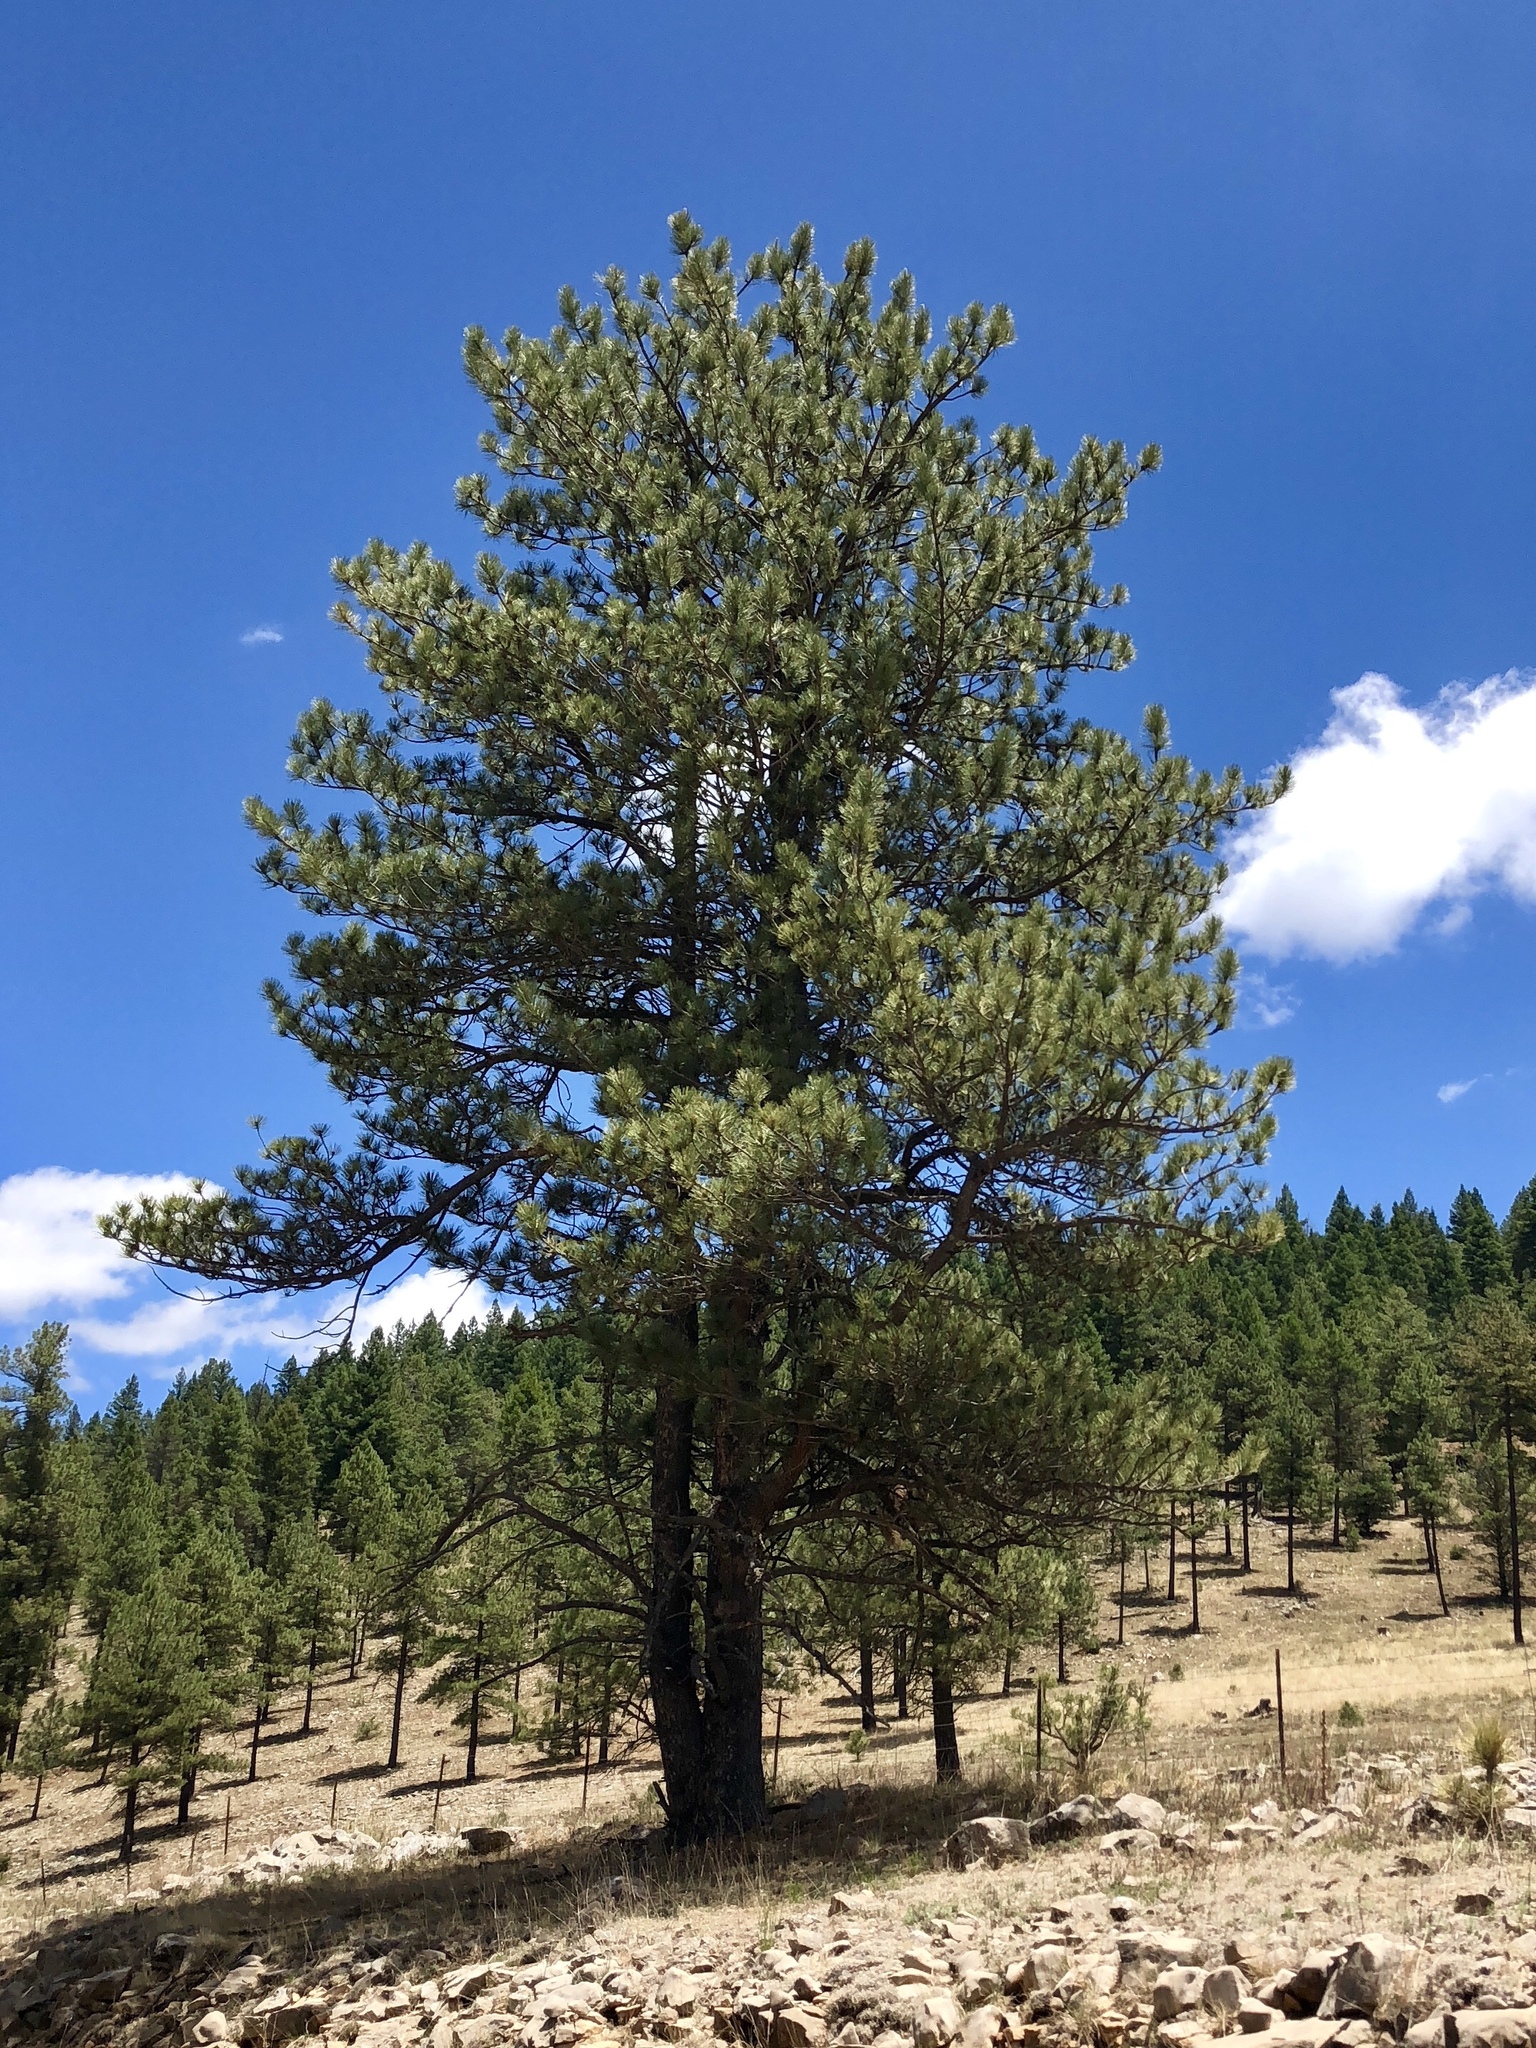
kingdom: Plantae
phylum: Tracheophyta
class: Pinopsida
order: Pinales
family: Pinaceae
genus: Pinus
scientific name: Pinus ponderosa
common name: Western yellow-pine
